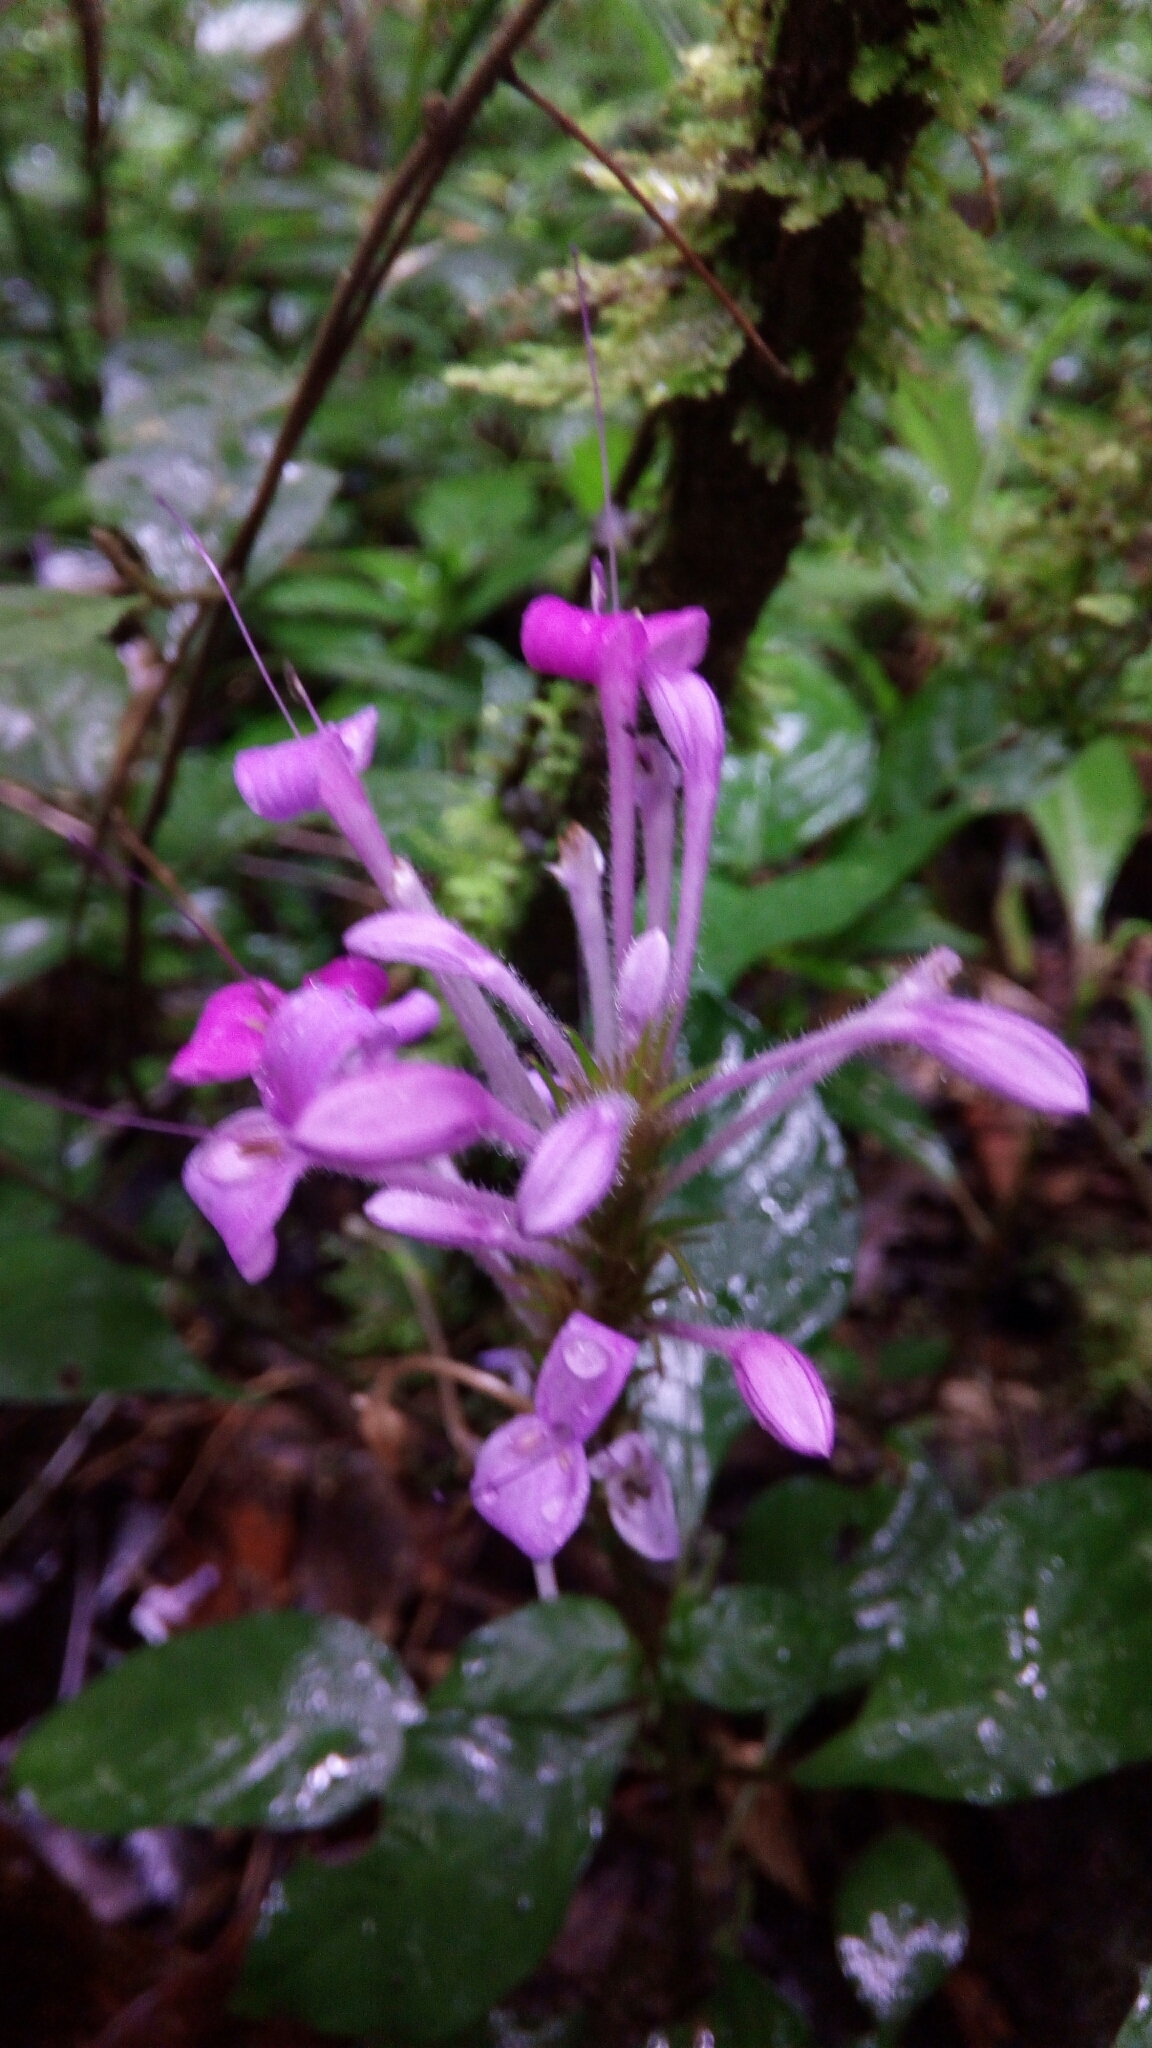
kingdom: Plantae
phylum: Tracheophyta
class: Magnoliopsida
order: Lamiales
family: Acanthaceae
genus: Brachystephanus
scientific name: Brachystephanus lyallii
